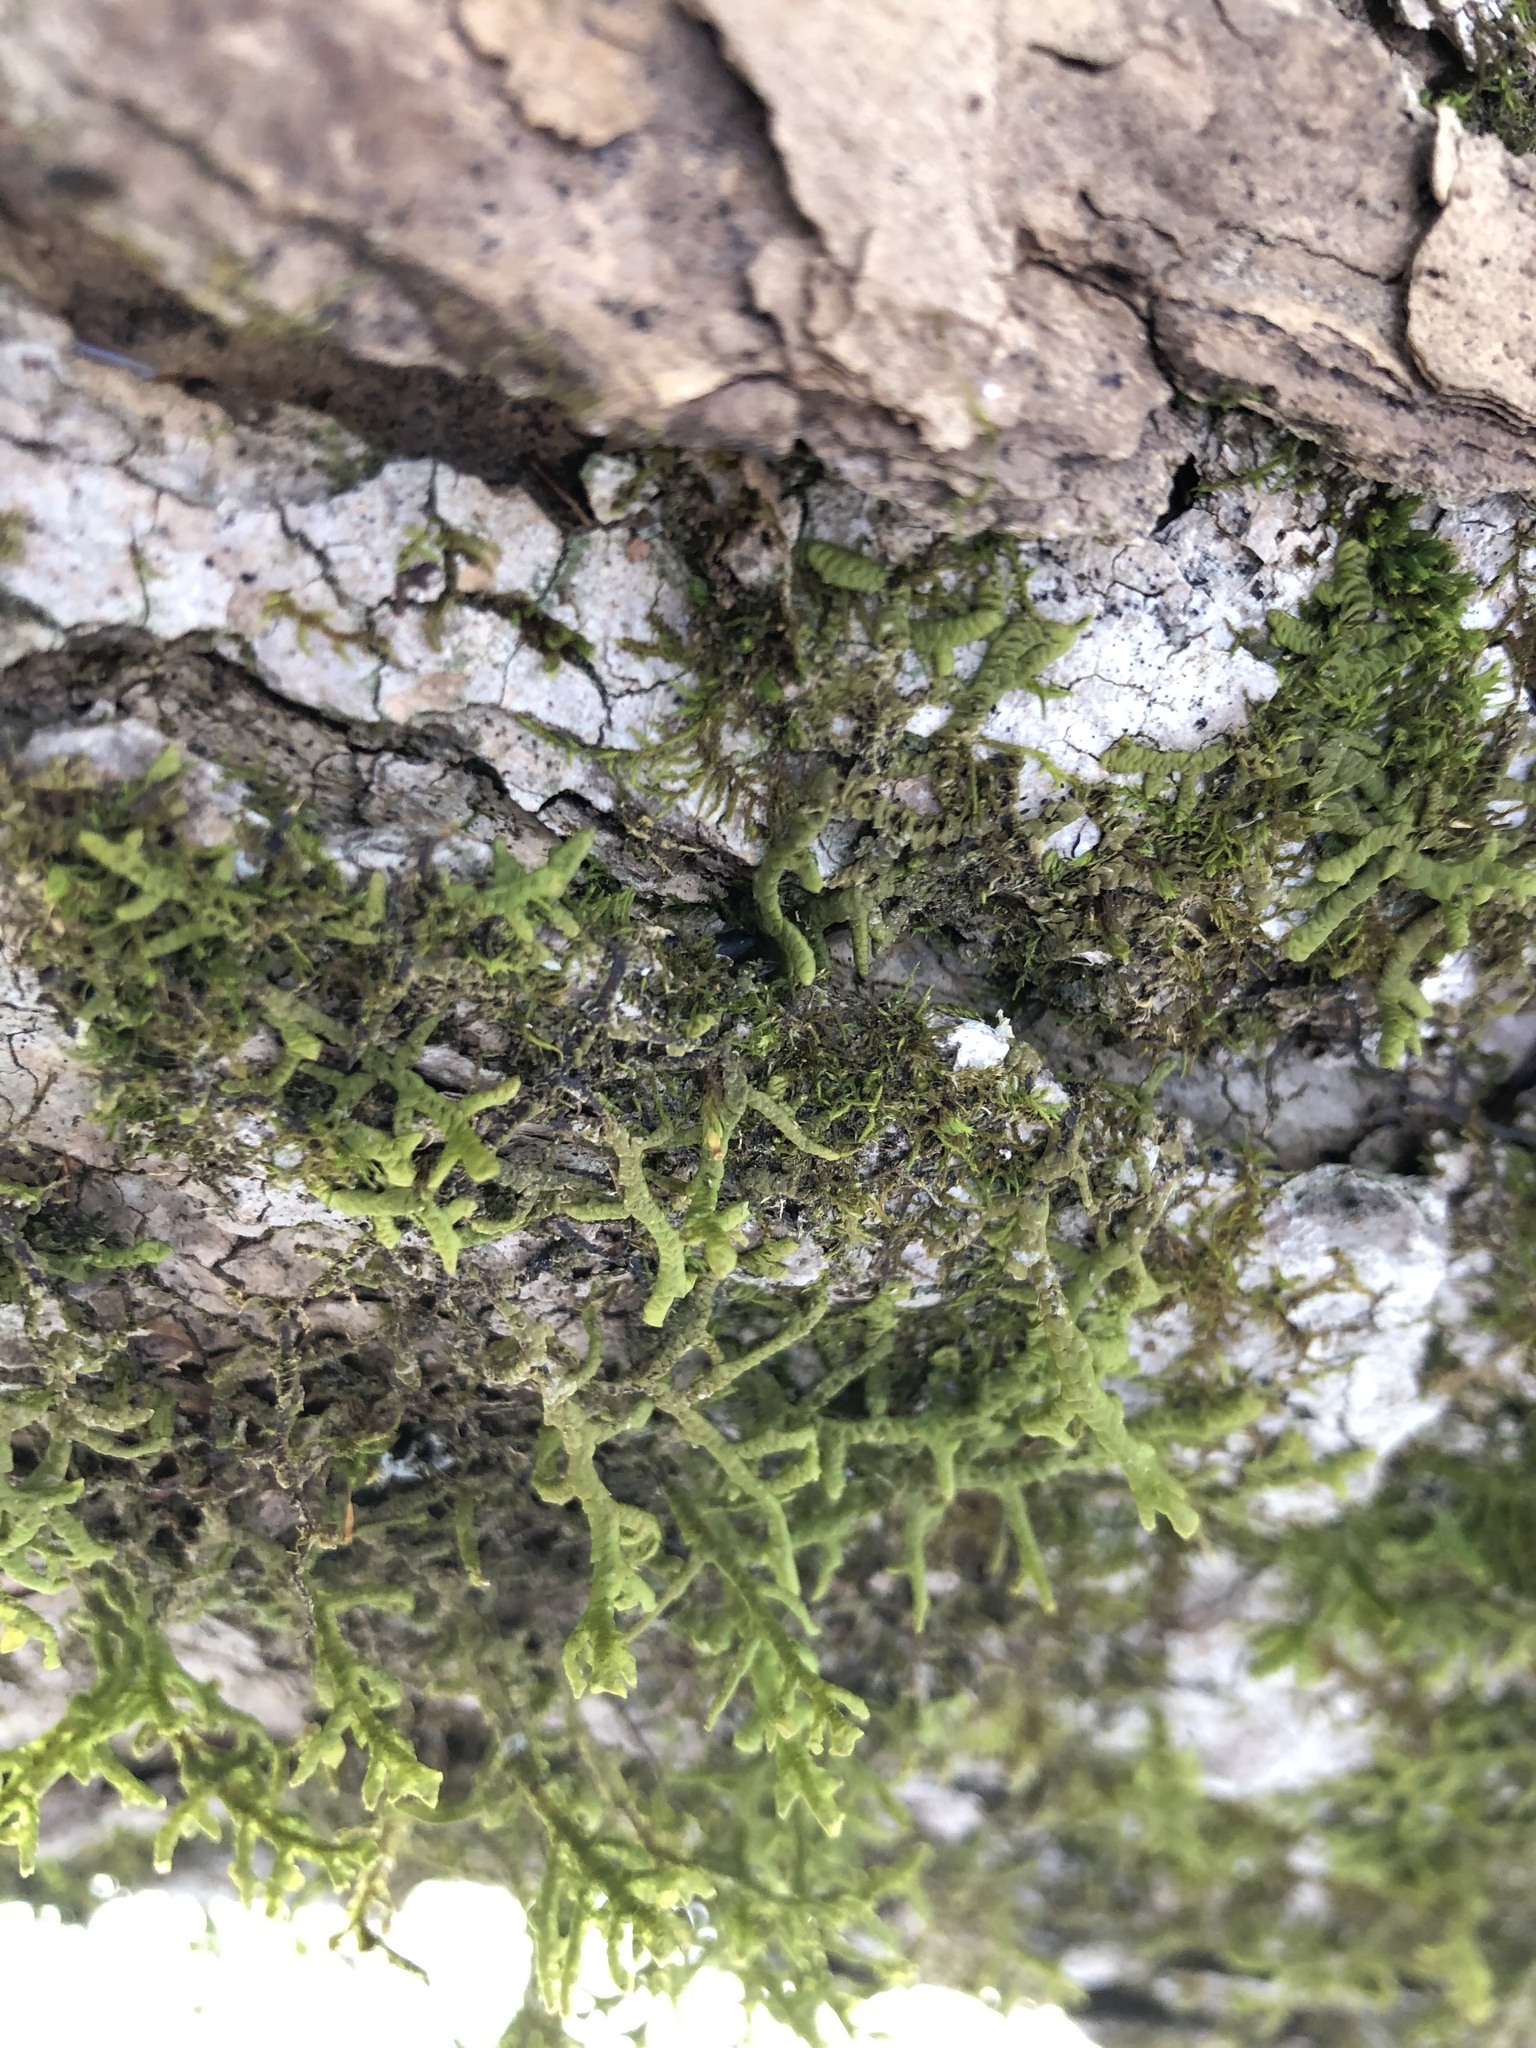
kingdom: Plantae
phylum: Marchantiophyta
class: Jungermanniopsida
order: Porellales
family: Porellaceae
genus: Porella
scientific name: Porella platyphylla
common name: Wall scalewort
